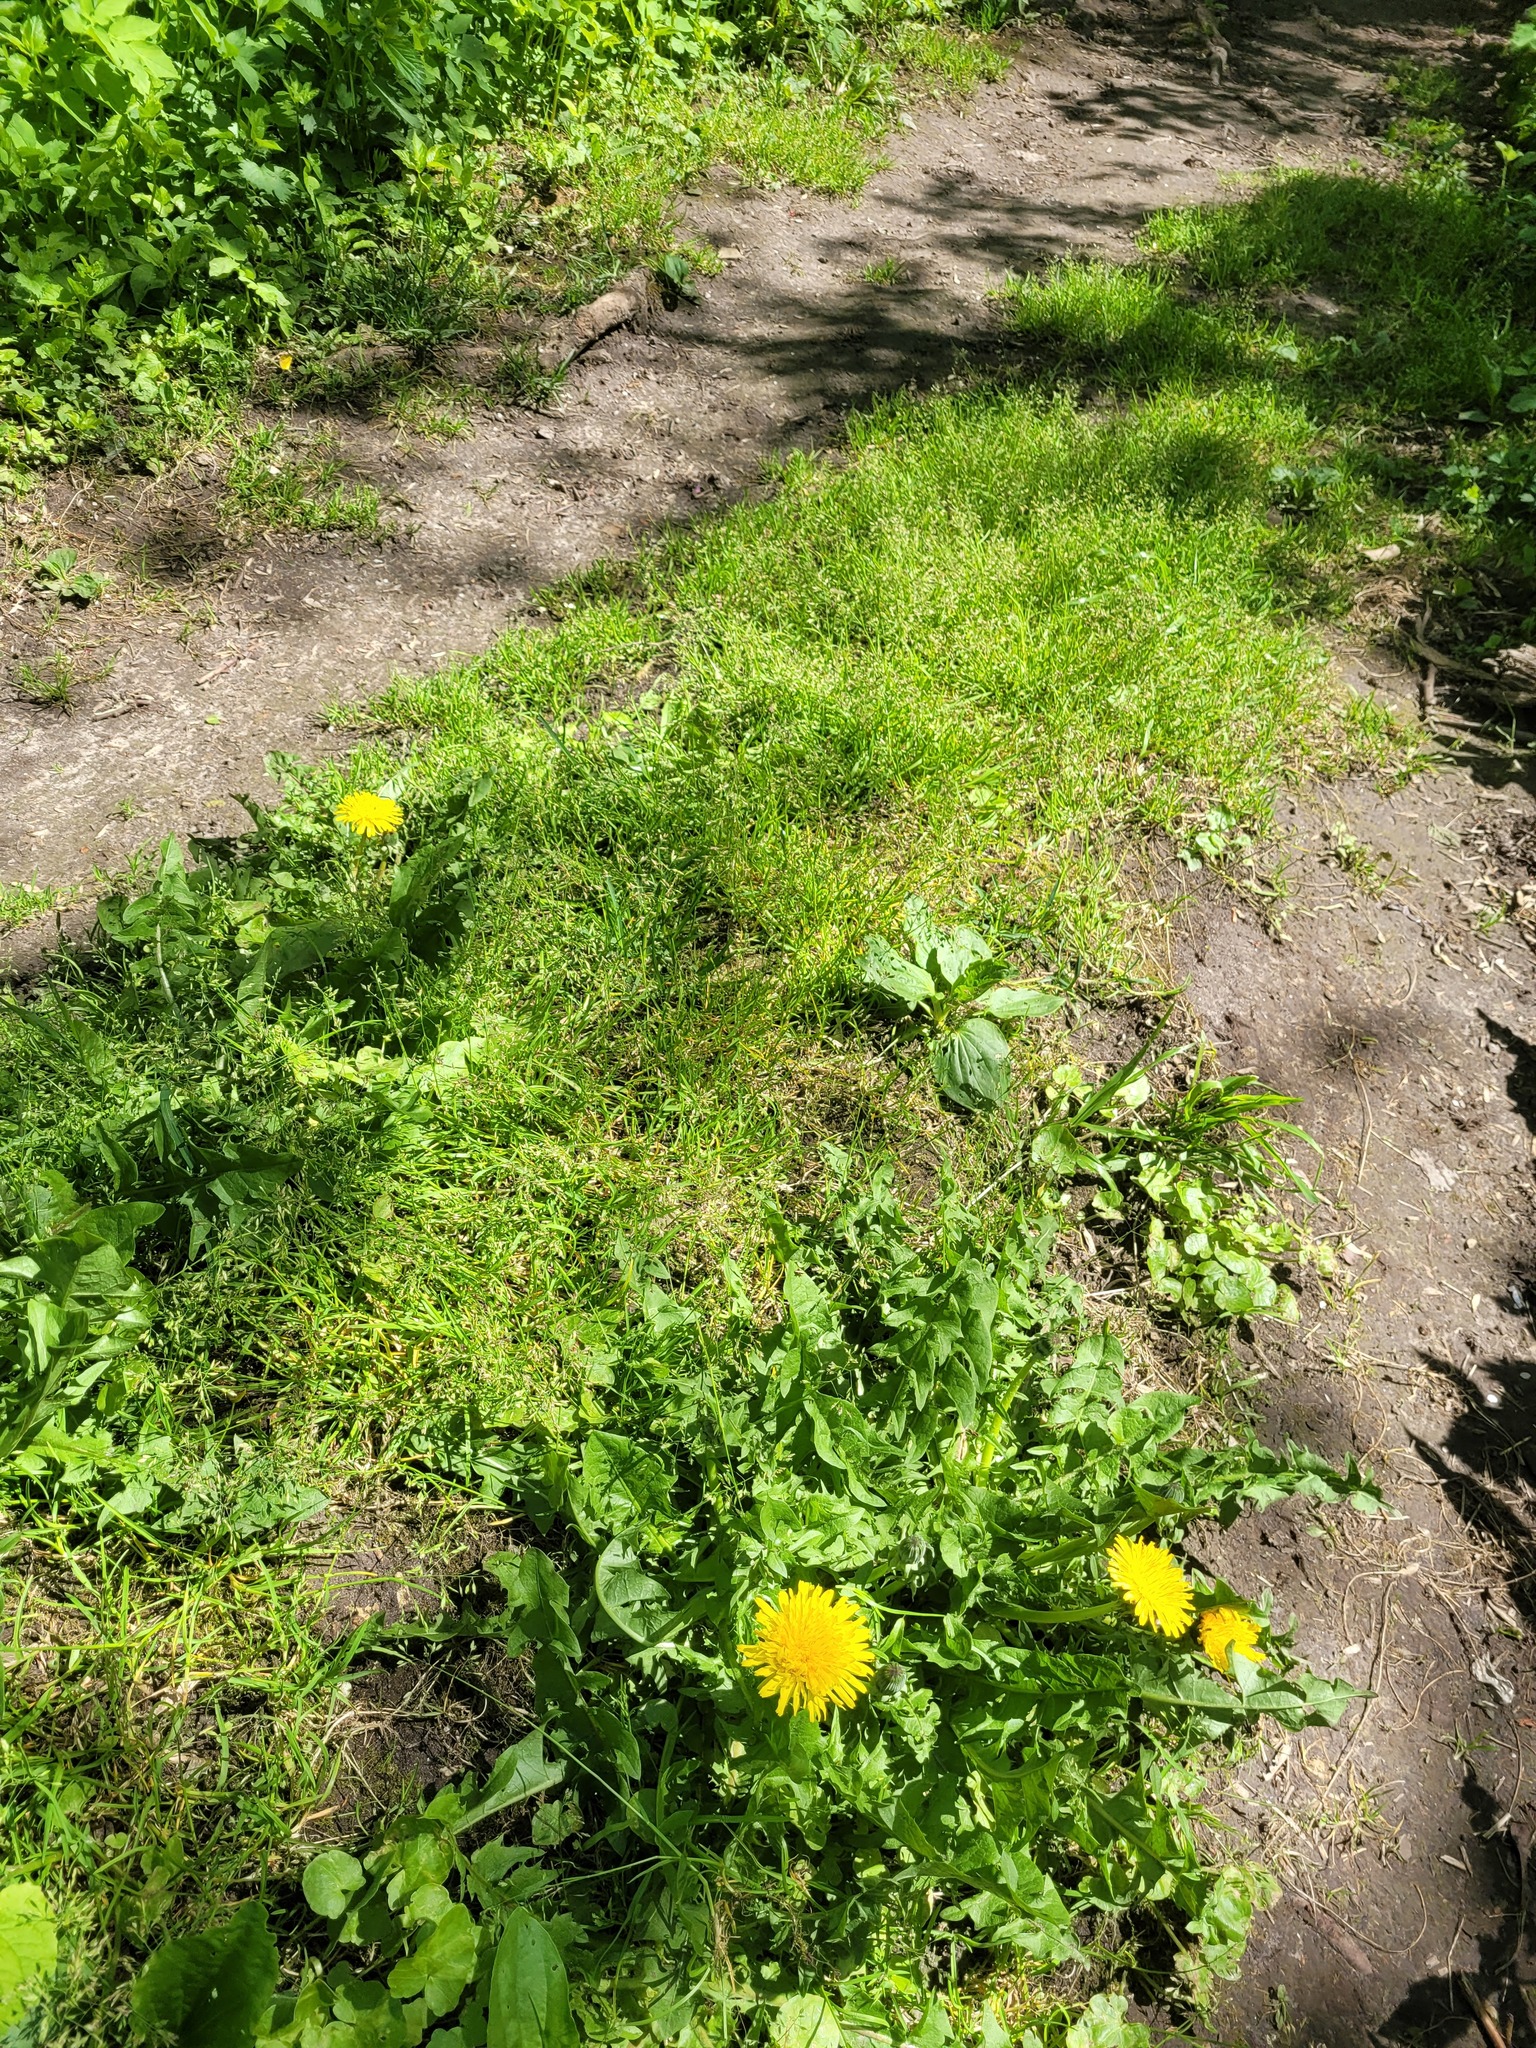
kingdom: Plantae
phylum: Tracheophyta
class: Liliopsida
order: Poales
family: Poaceae
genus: Poa
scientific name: Poa supina
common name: Supina bluegrass
